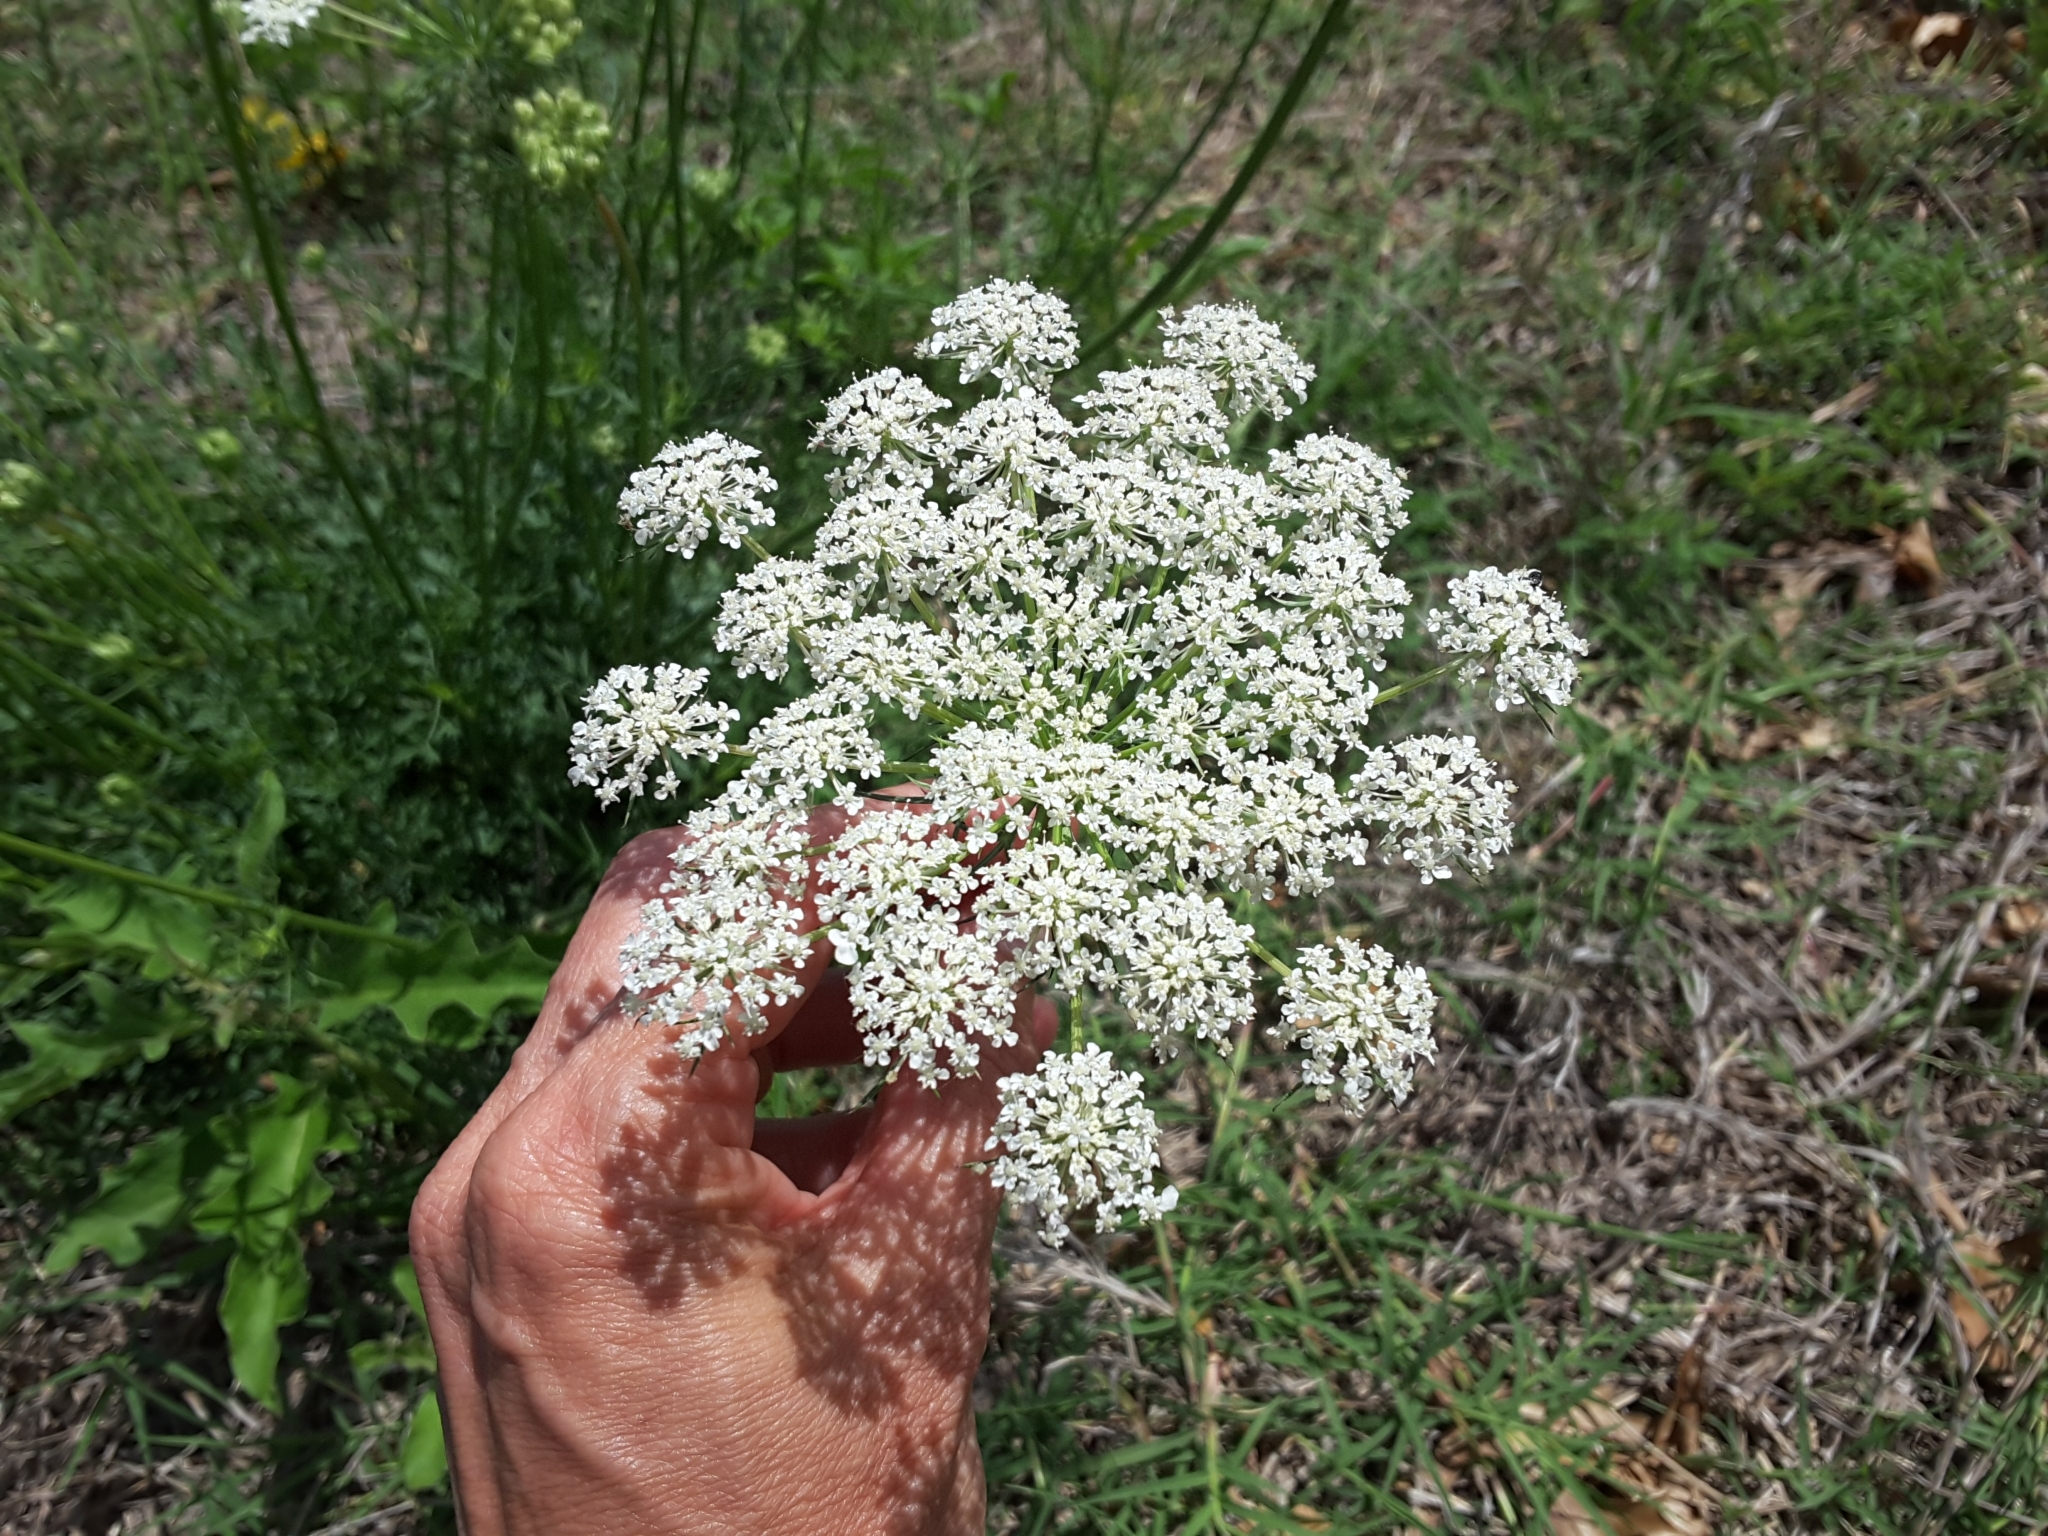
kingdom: Plantae
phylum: Tracheophyta
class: Magnoliopsida
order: Apiales
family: Apiaceae
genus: Daucus
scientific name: Daucus carota
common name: Wild carrot
